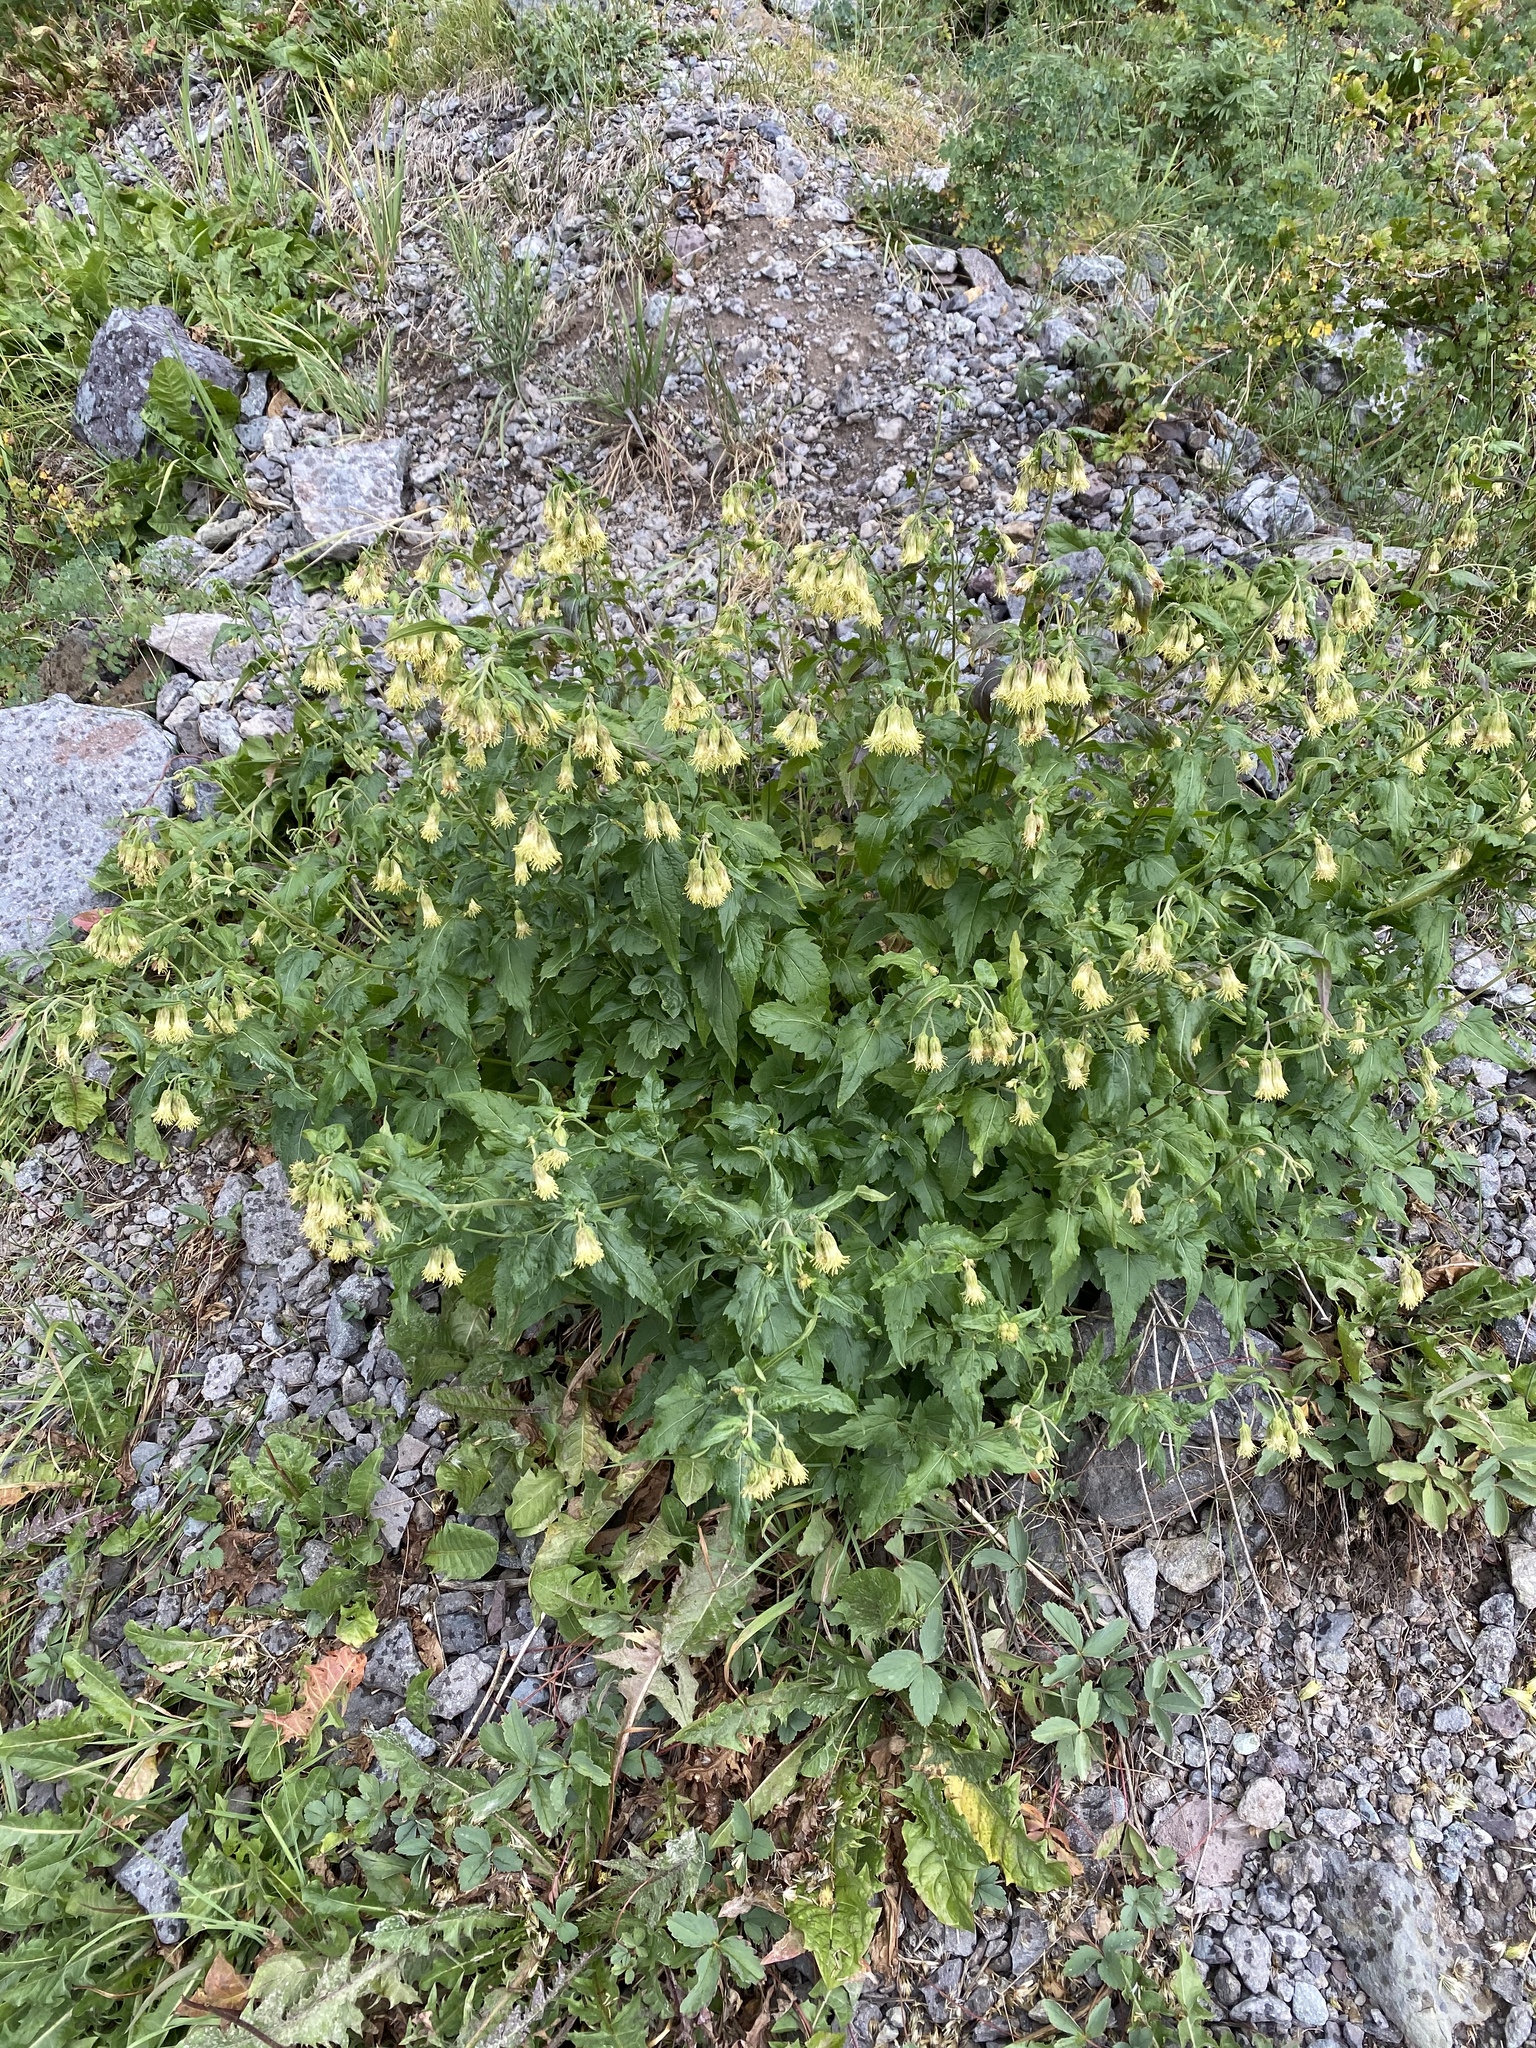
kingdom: Plantae
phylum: Tracheophyta
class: Magnoliopsida
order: Asterales
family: Asteraceae
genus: Brickellia
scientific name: Brickellia grandiflora
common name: Large-flowered brickellia
